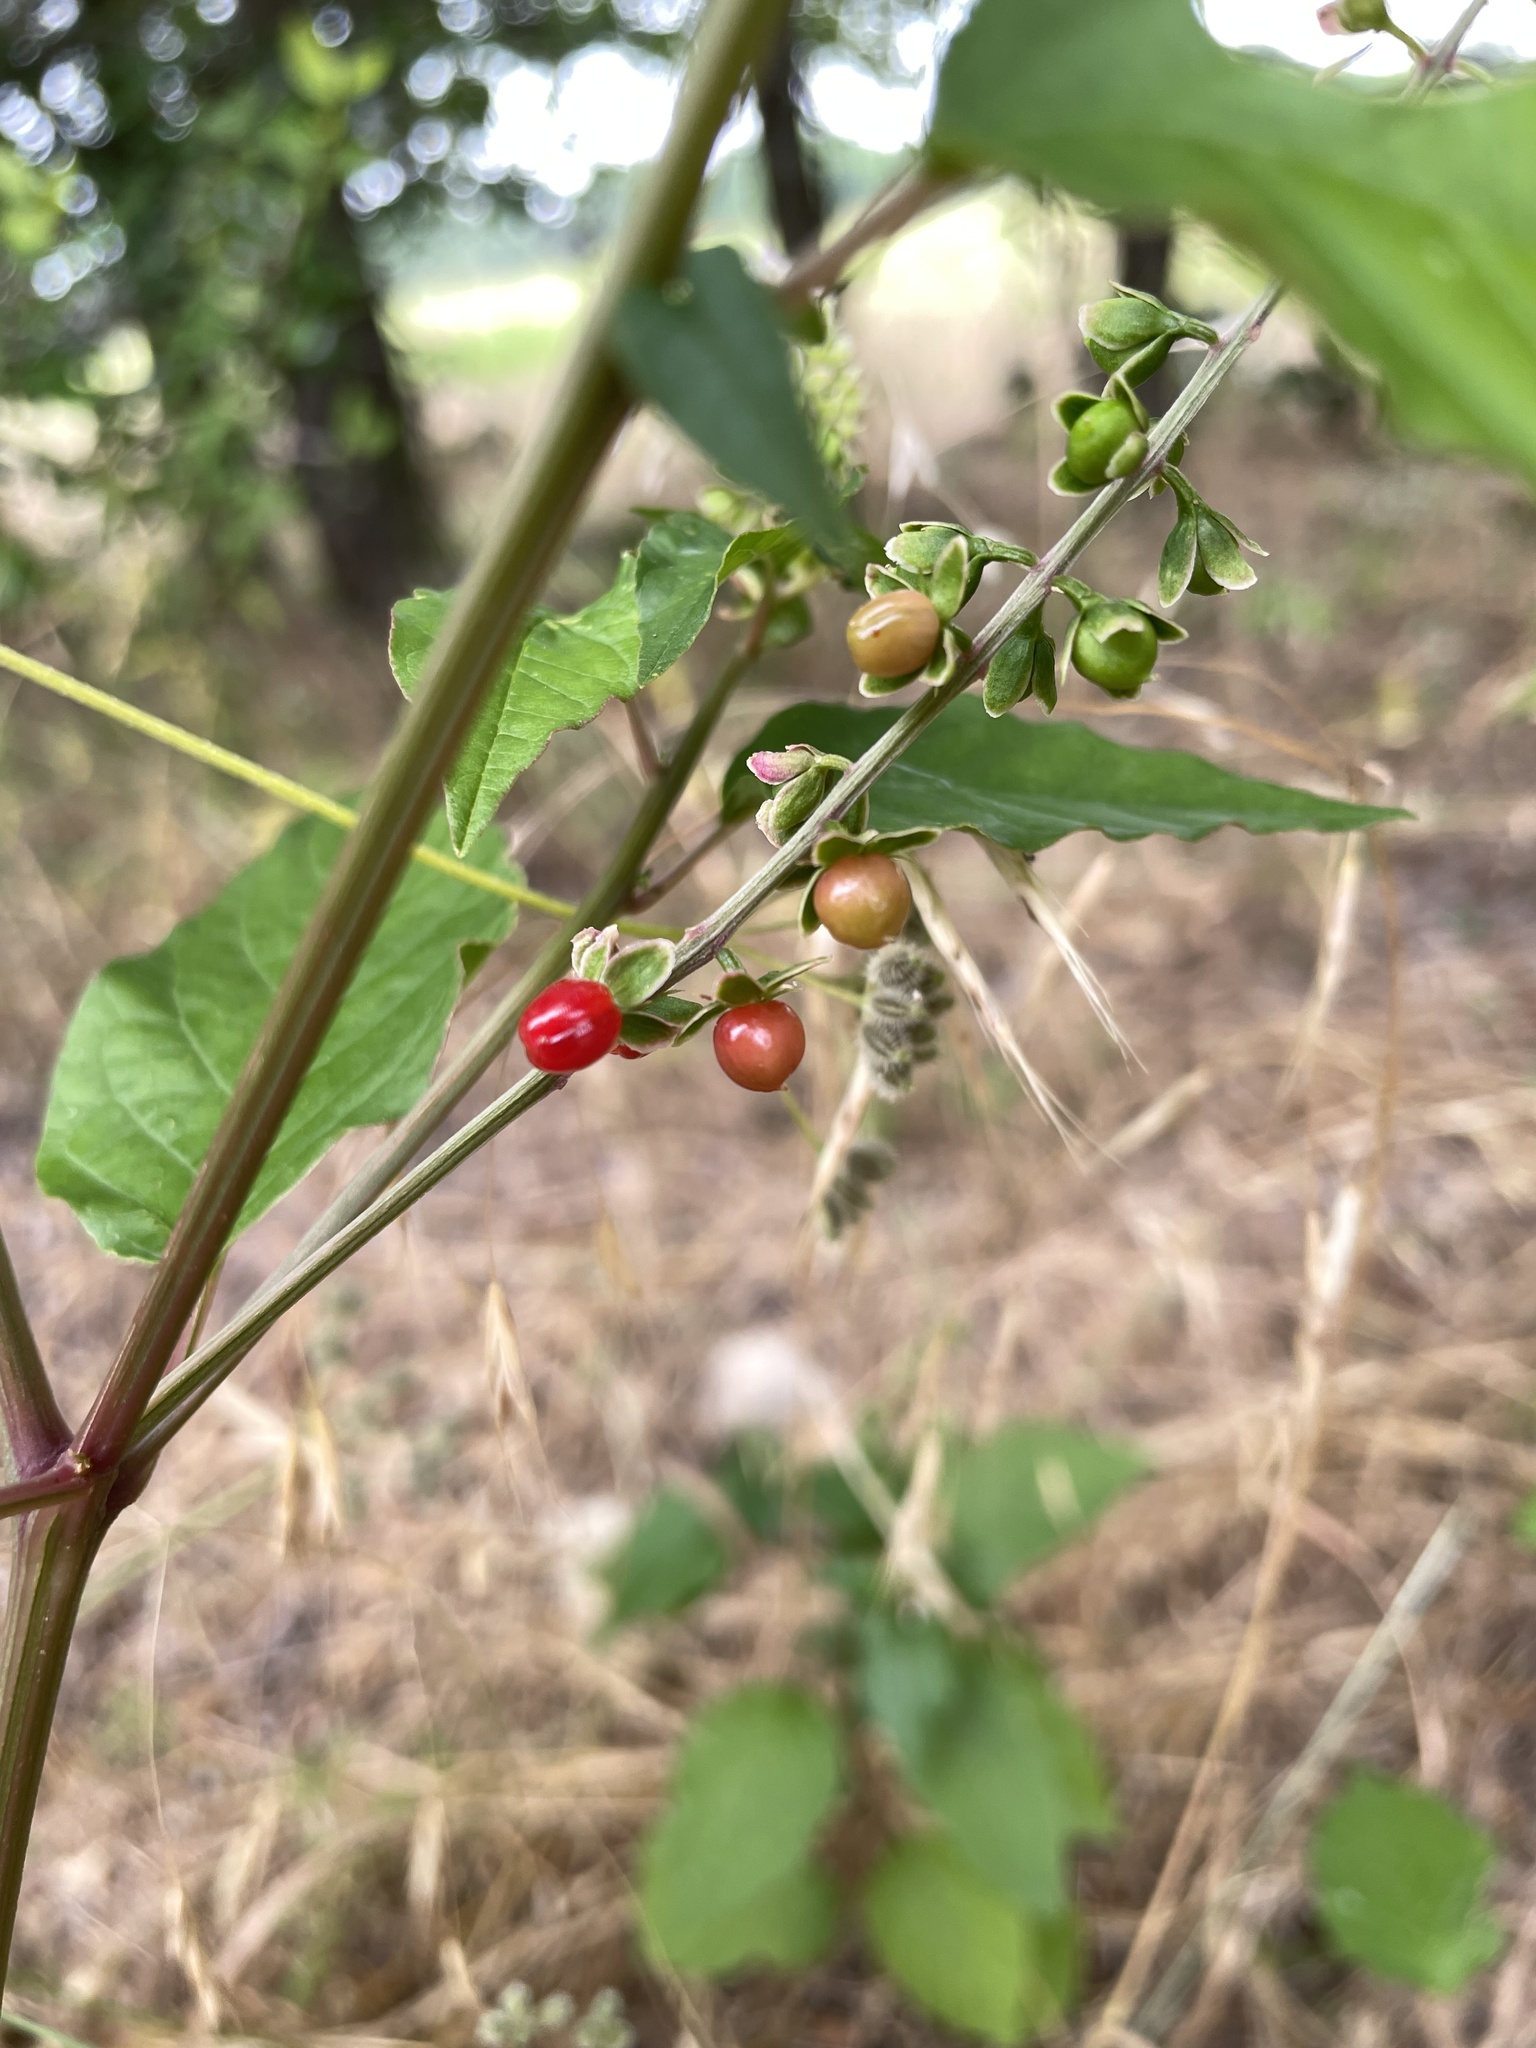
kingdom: Plantae
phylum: Tracheophyta
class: Magnoliopsida
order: Caryophyllales
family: Phytolaccaceae
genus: Rivina
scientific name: Rivina humilis
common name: Rougeplant
